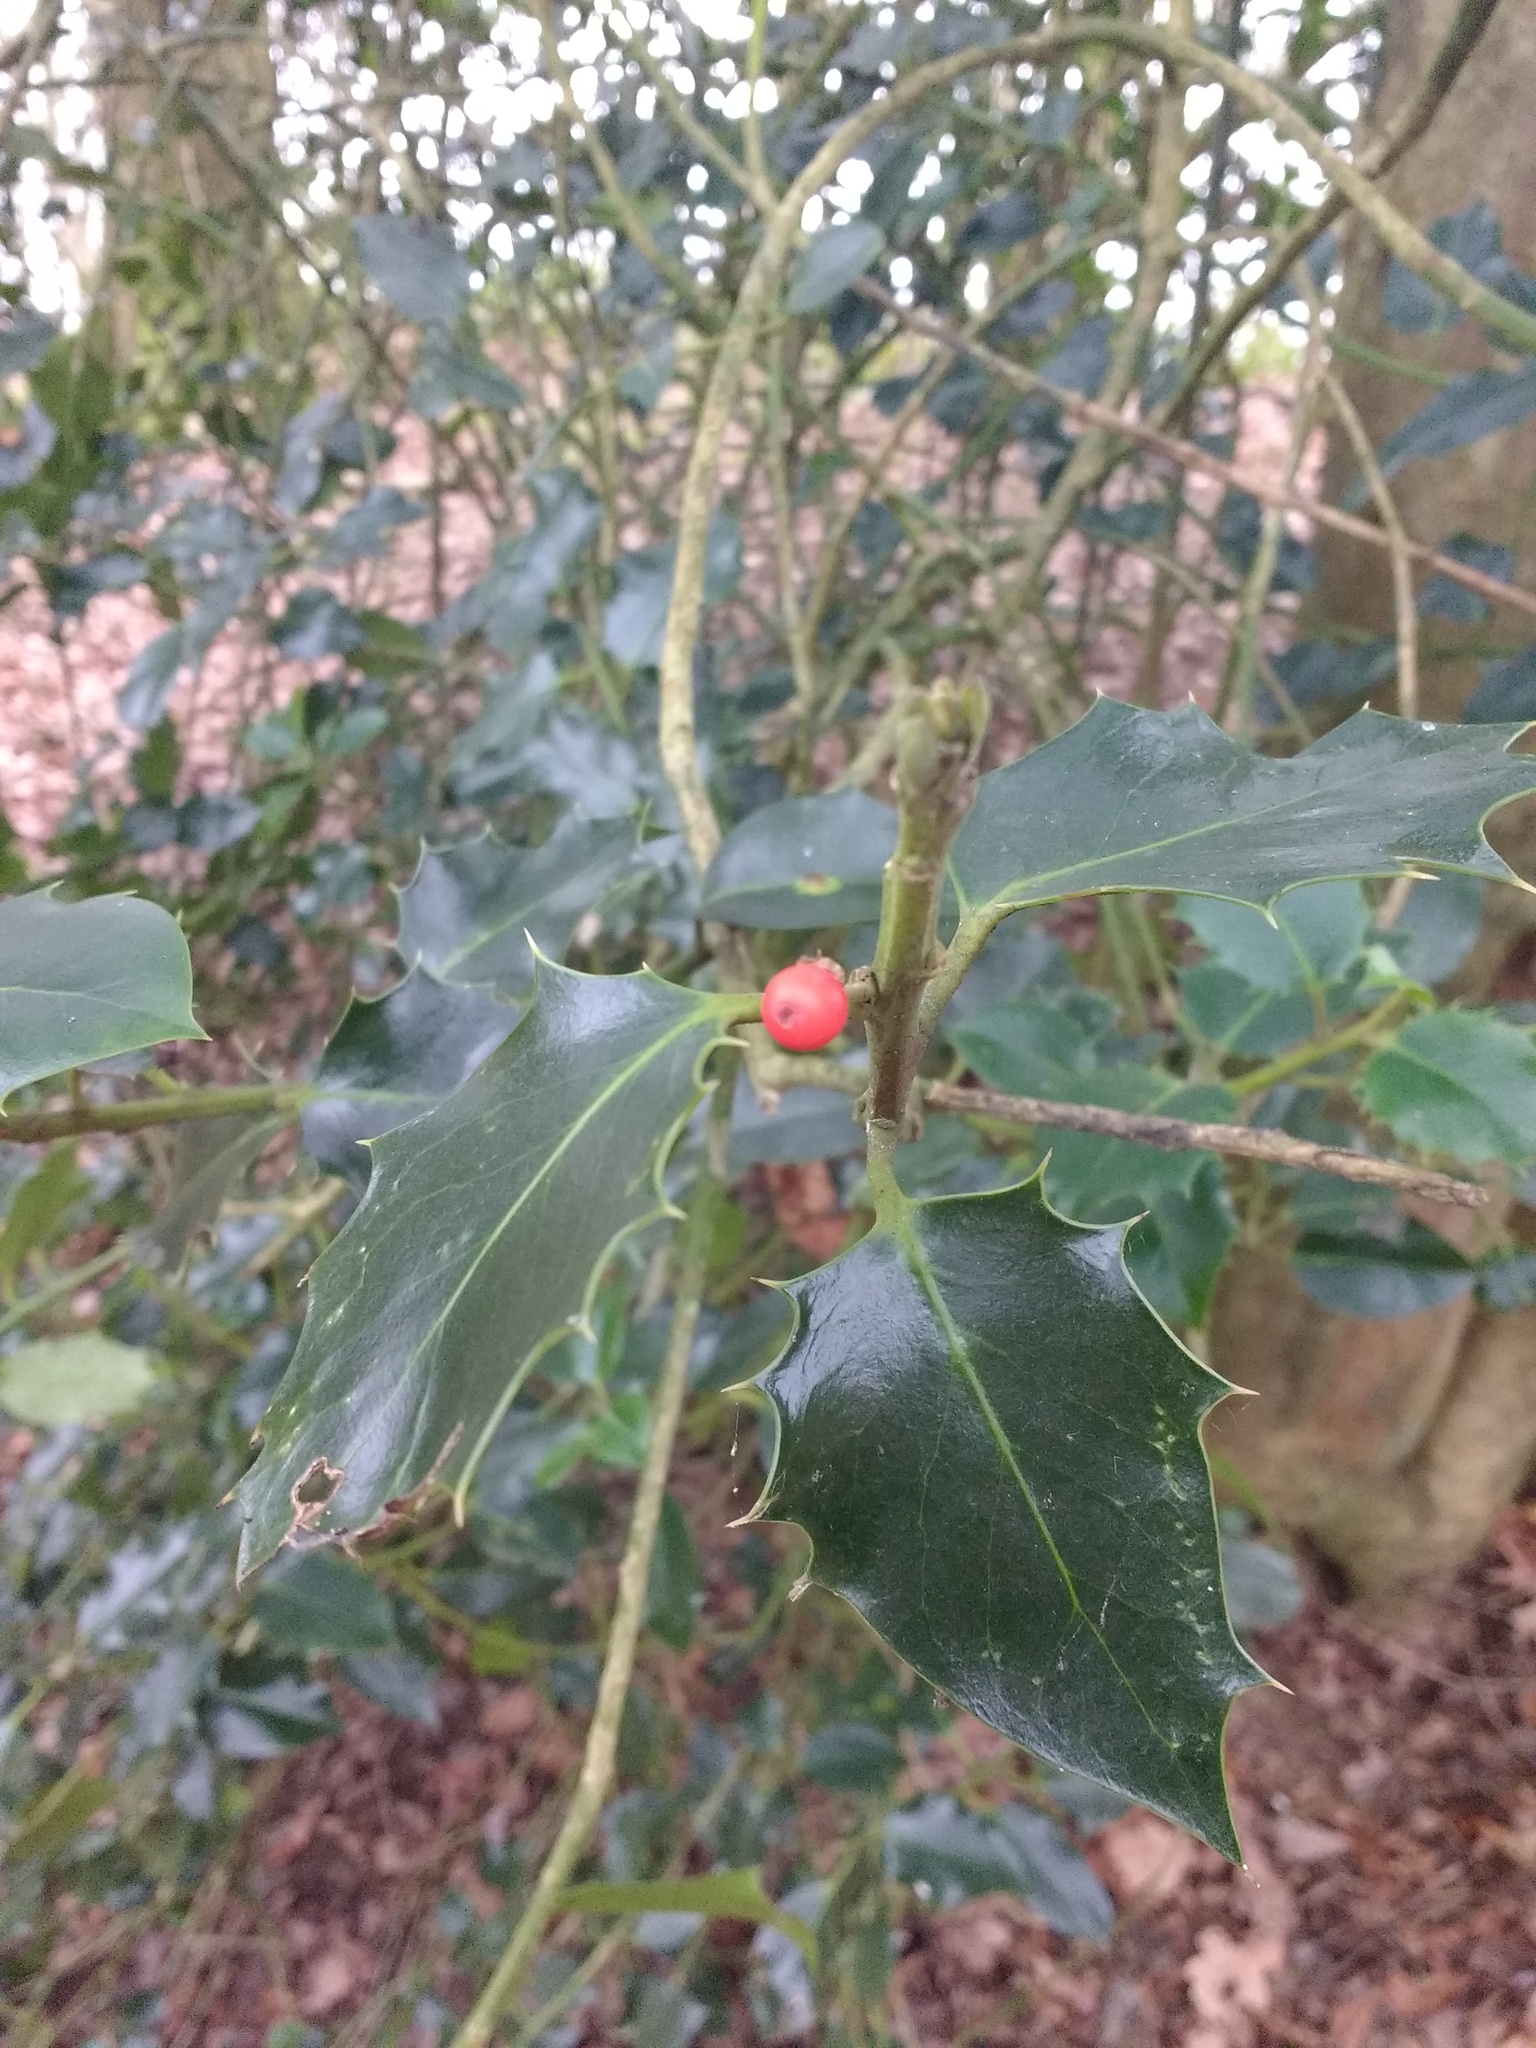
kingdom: Plantae
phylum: Tracheophyta
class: Magnoliopsida
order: Aquifoliales
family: Aquifoliaceae
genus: Ilex
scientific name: Ilex aquifolium
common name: English holly
